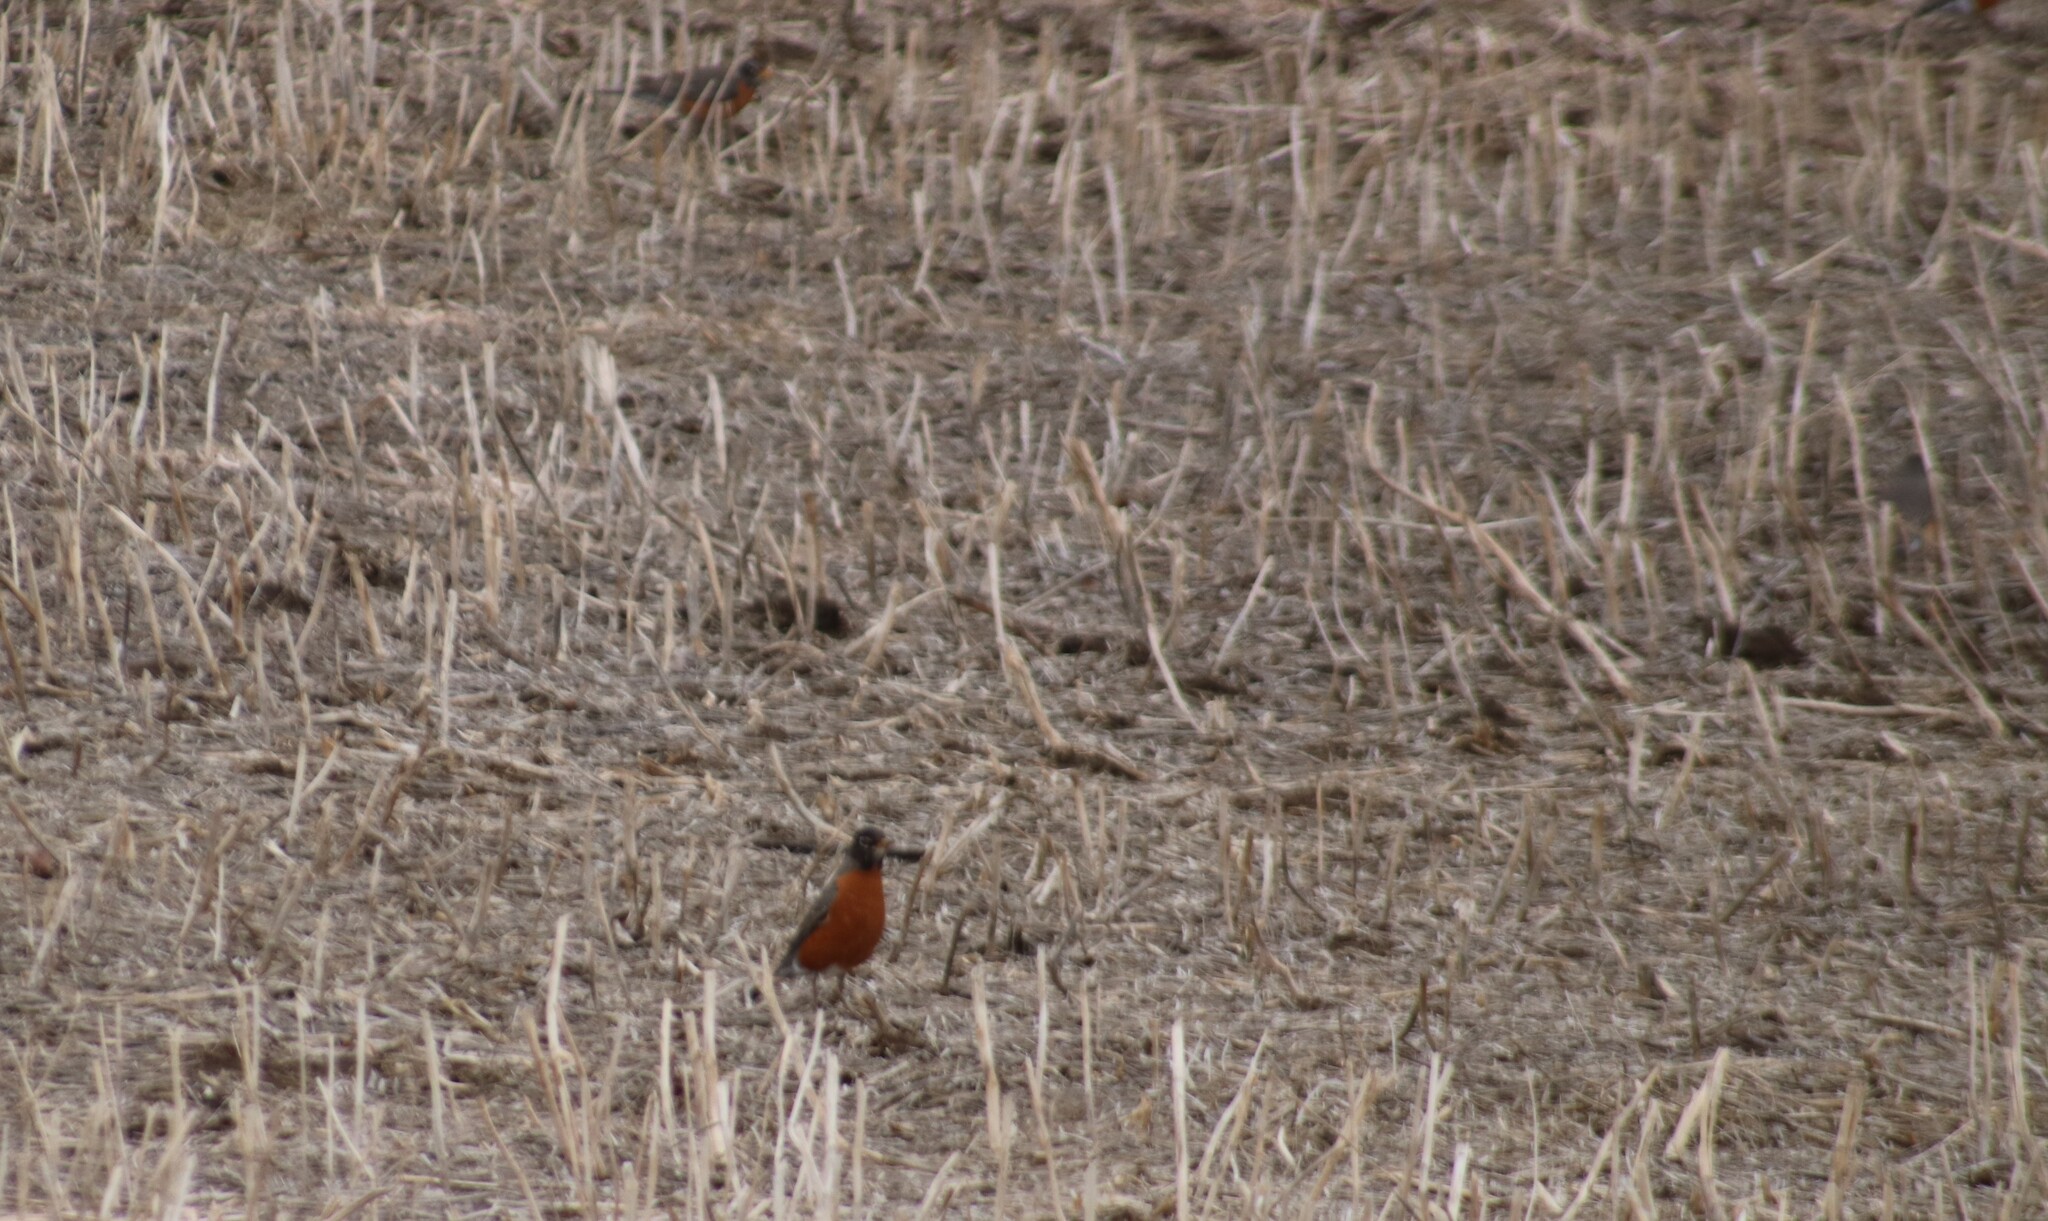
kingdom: Animalia
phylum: Chordata
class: Aves
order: Passeriformes
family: Turdidae
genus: Turdus
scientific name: Turdus migratorius
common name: American robin
